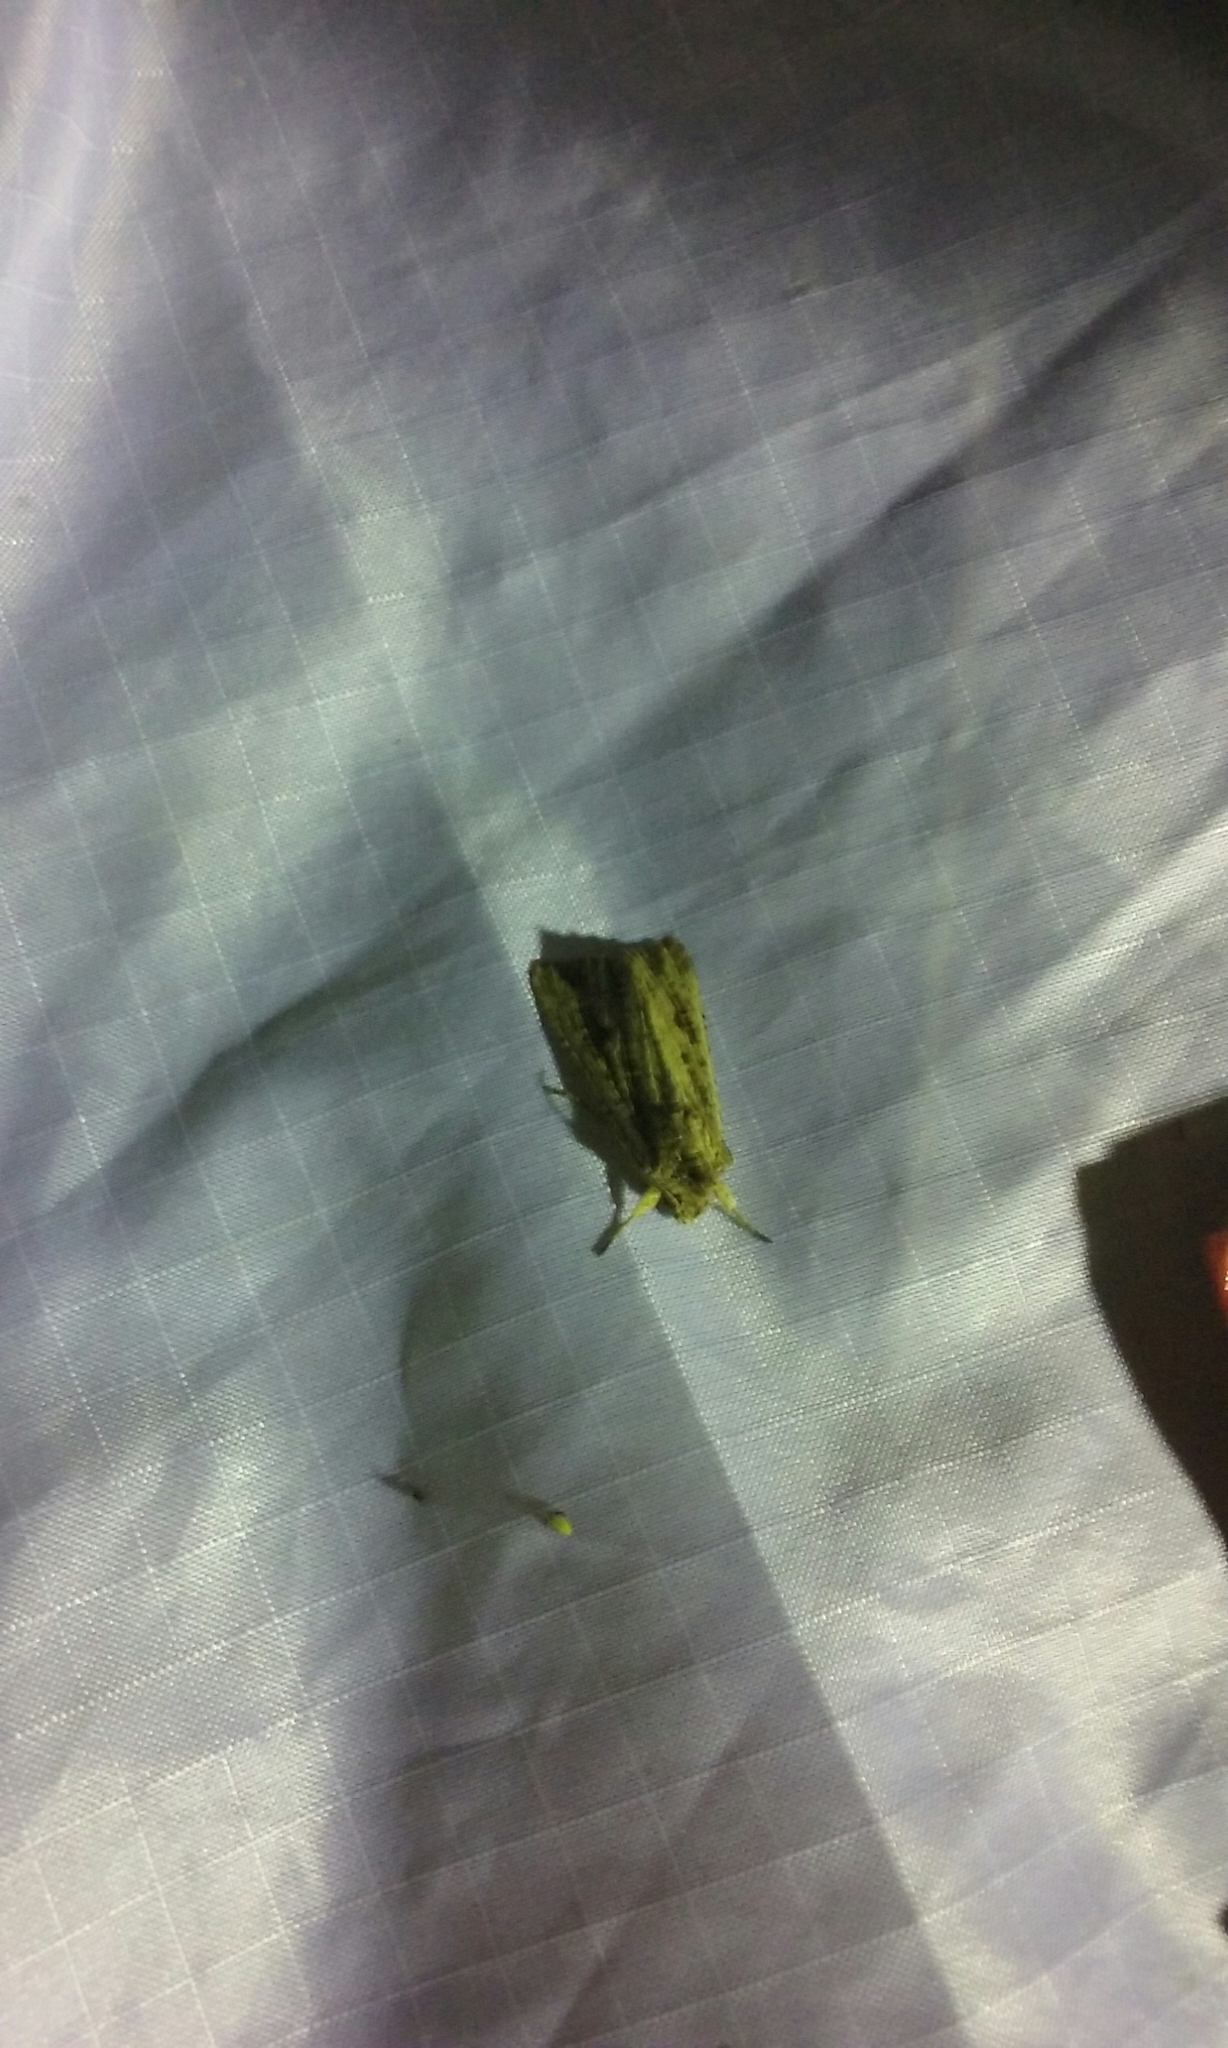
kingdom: Animalia
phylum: Arthropoda
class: Insecta
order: Lepidoptera
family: Noctuidae
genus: Ichneutica
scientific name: Ichneutica lignana
